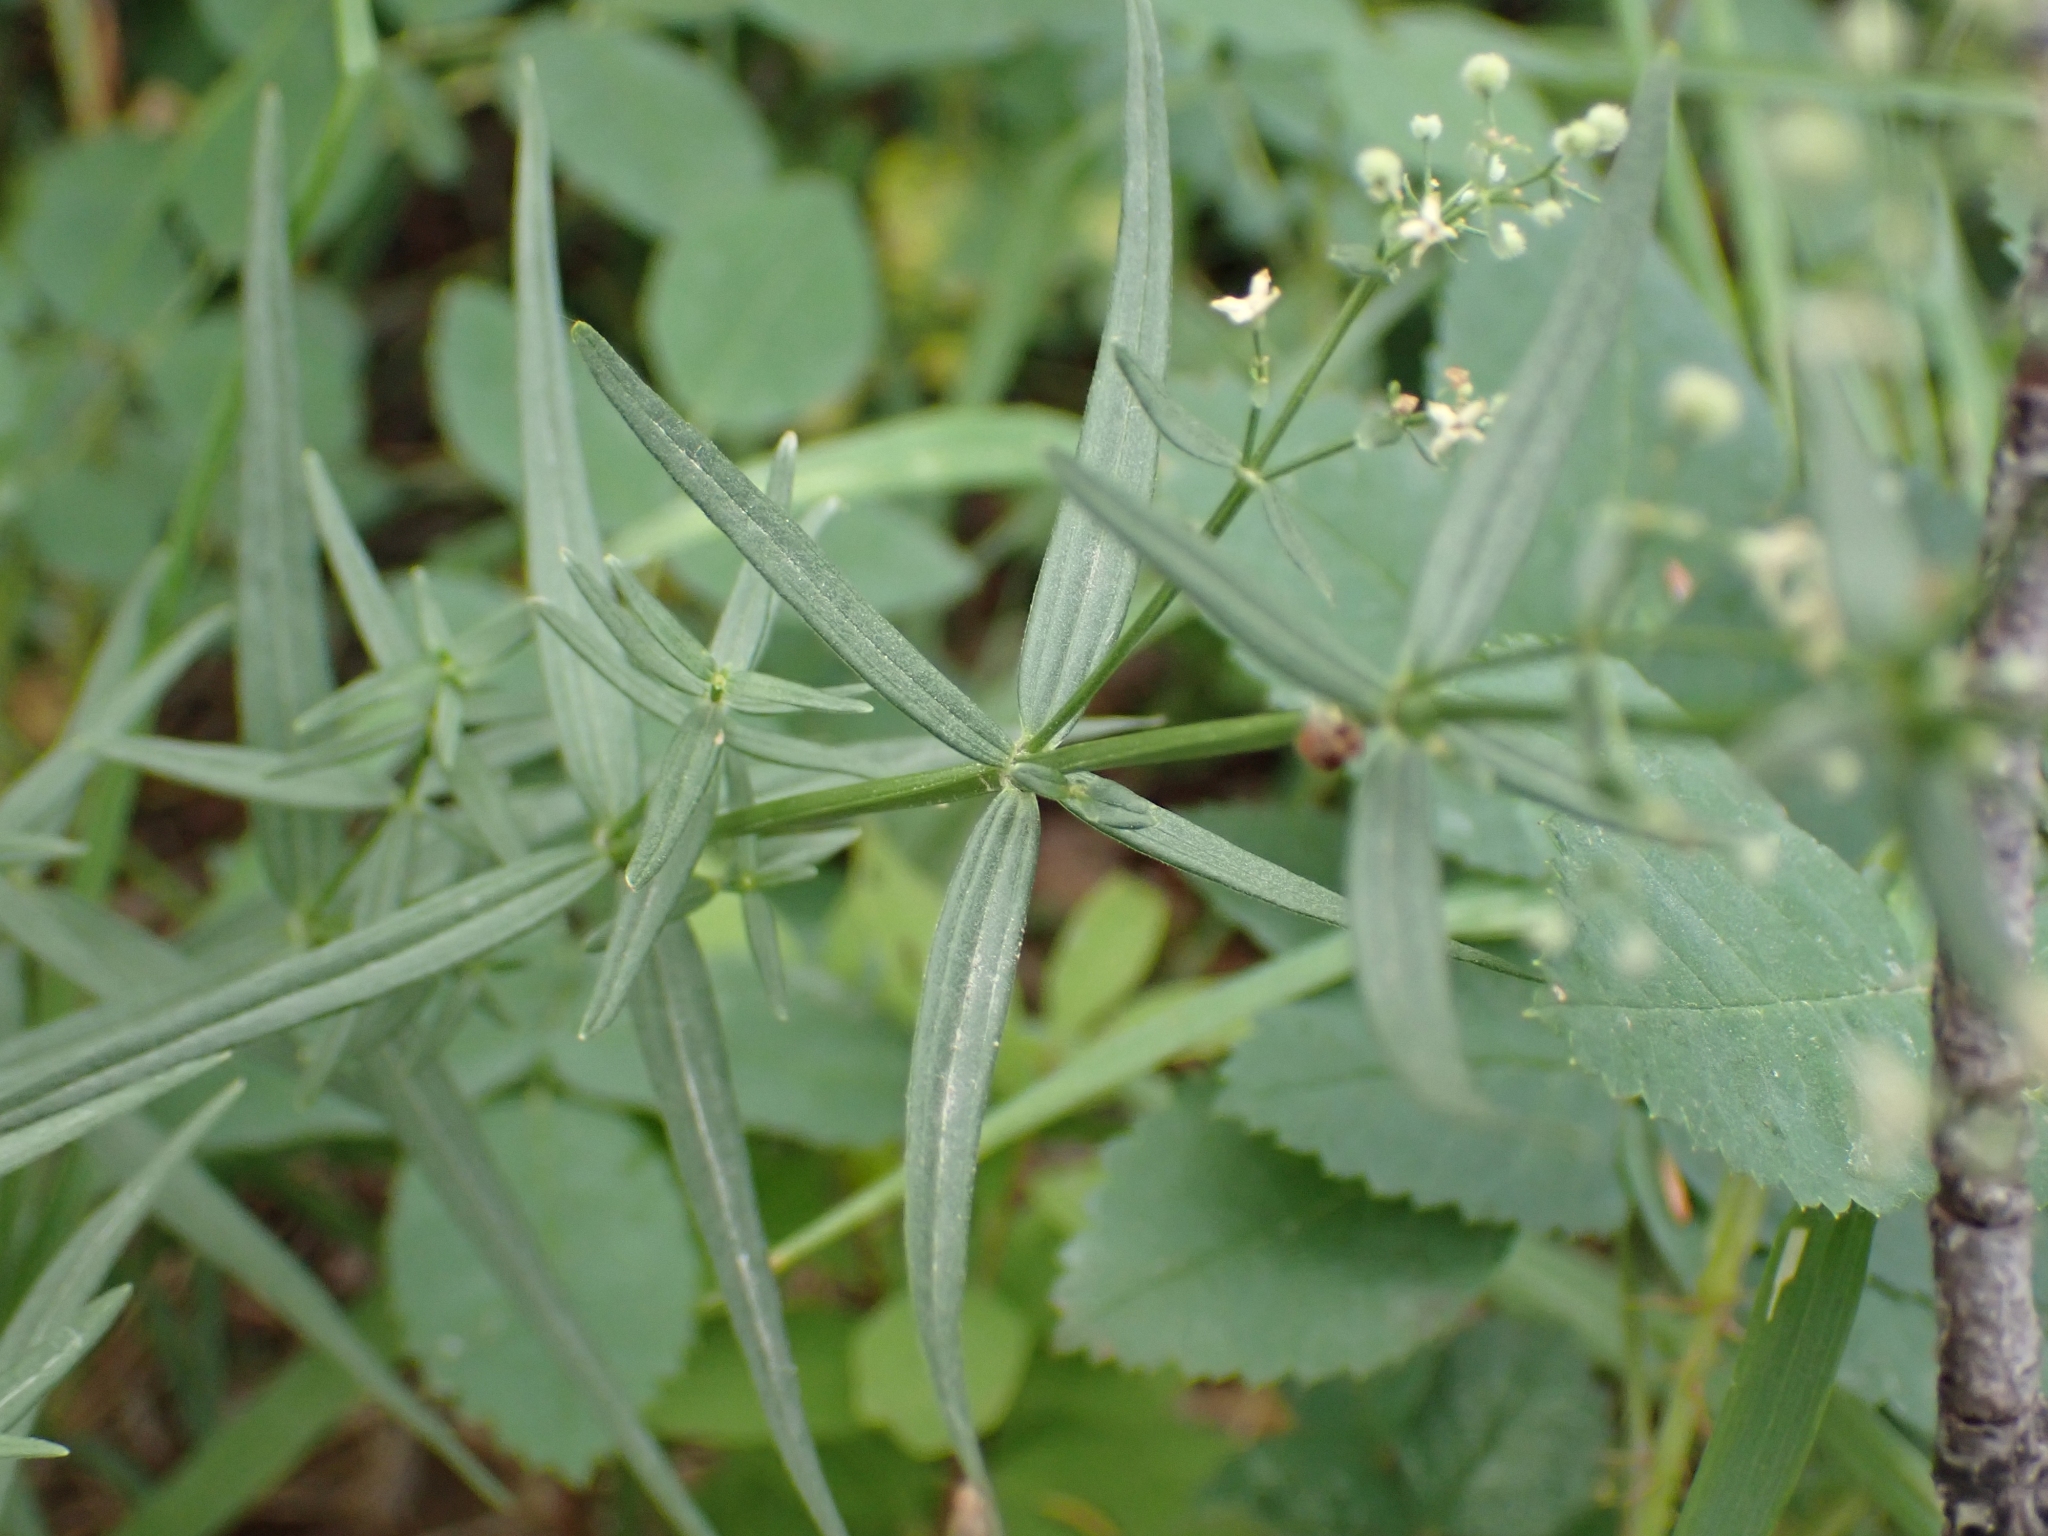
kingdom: Plantae
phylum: Tracheophyta
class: Magnoliopsida
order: Gentianales
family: Rubiaceae
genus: Galium
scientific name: Galium boreale
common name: Northern bedstraw
